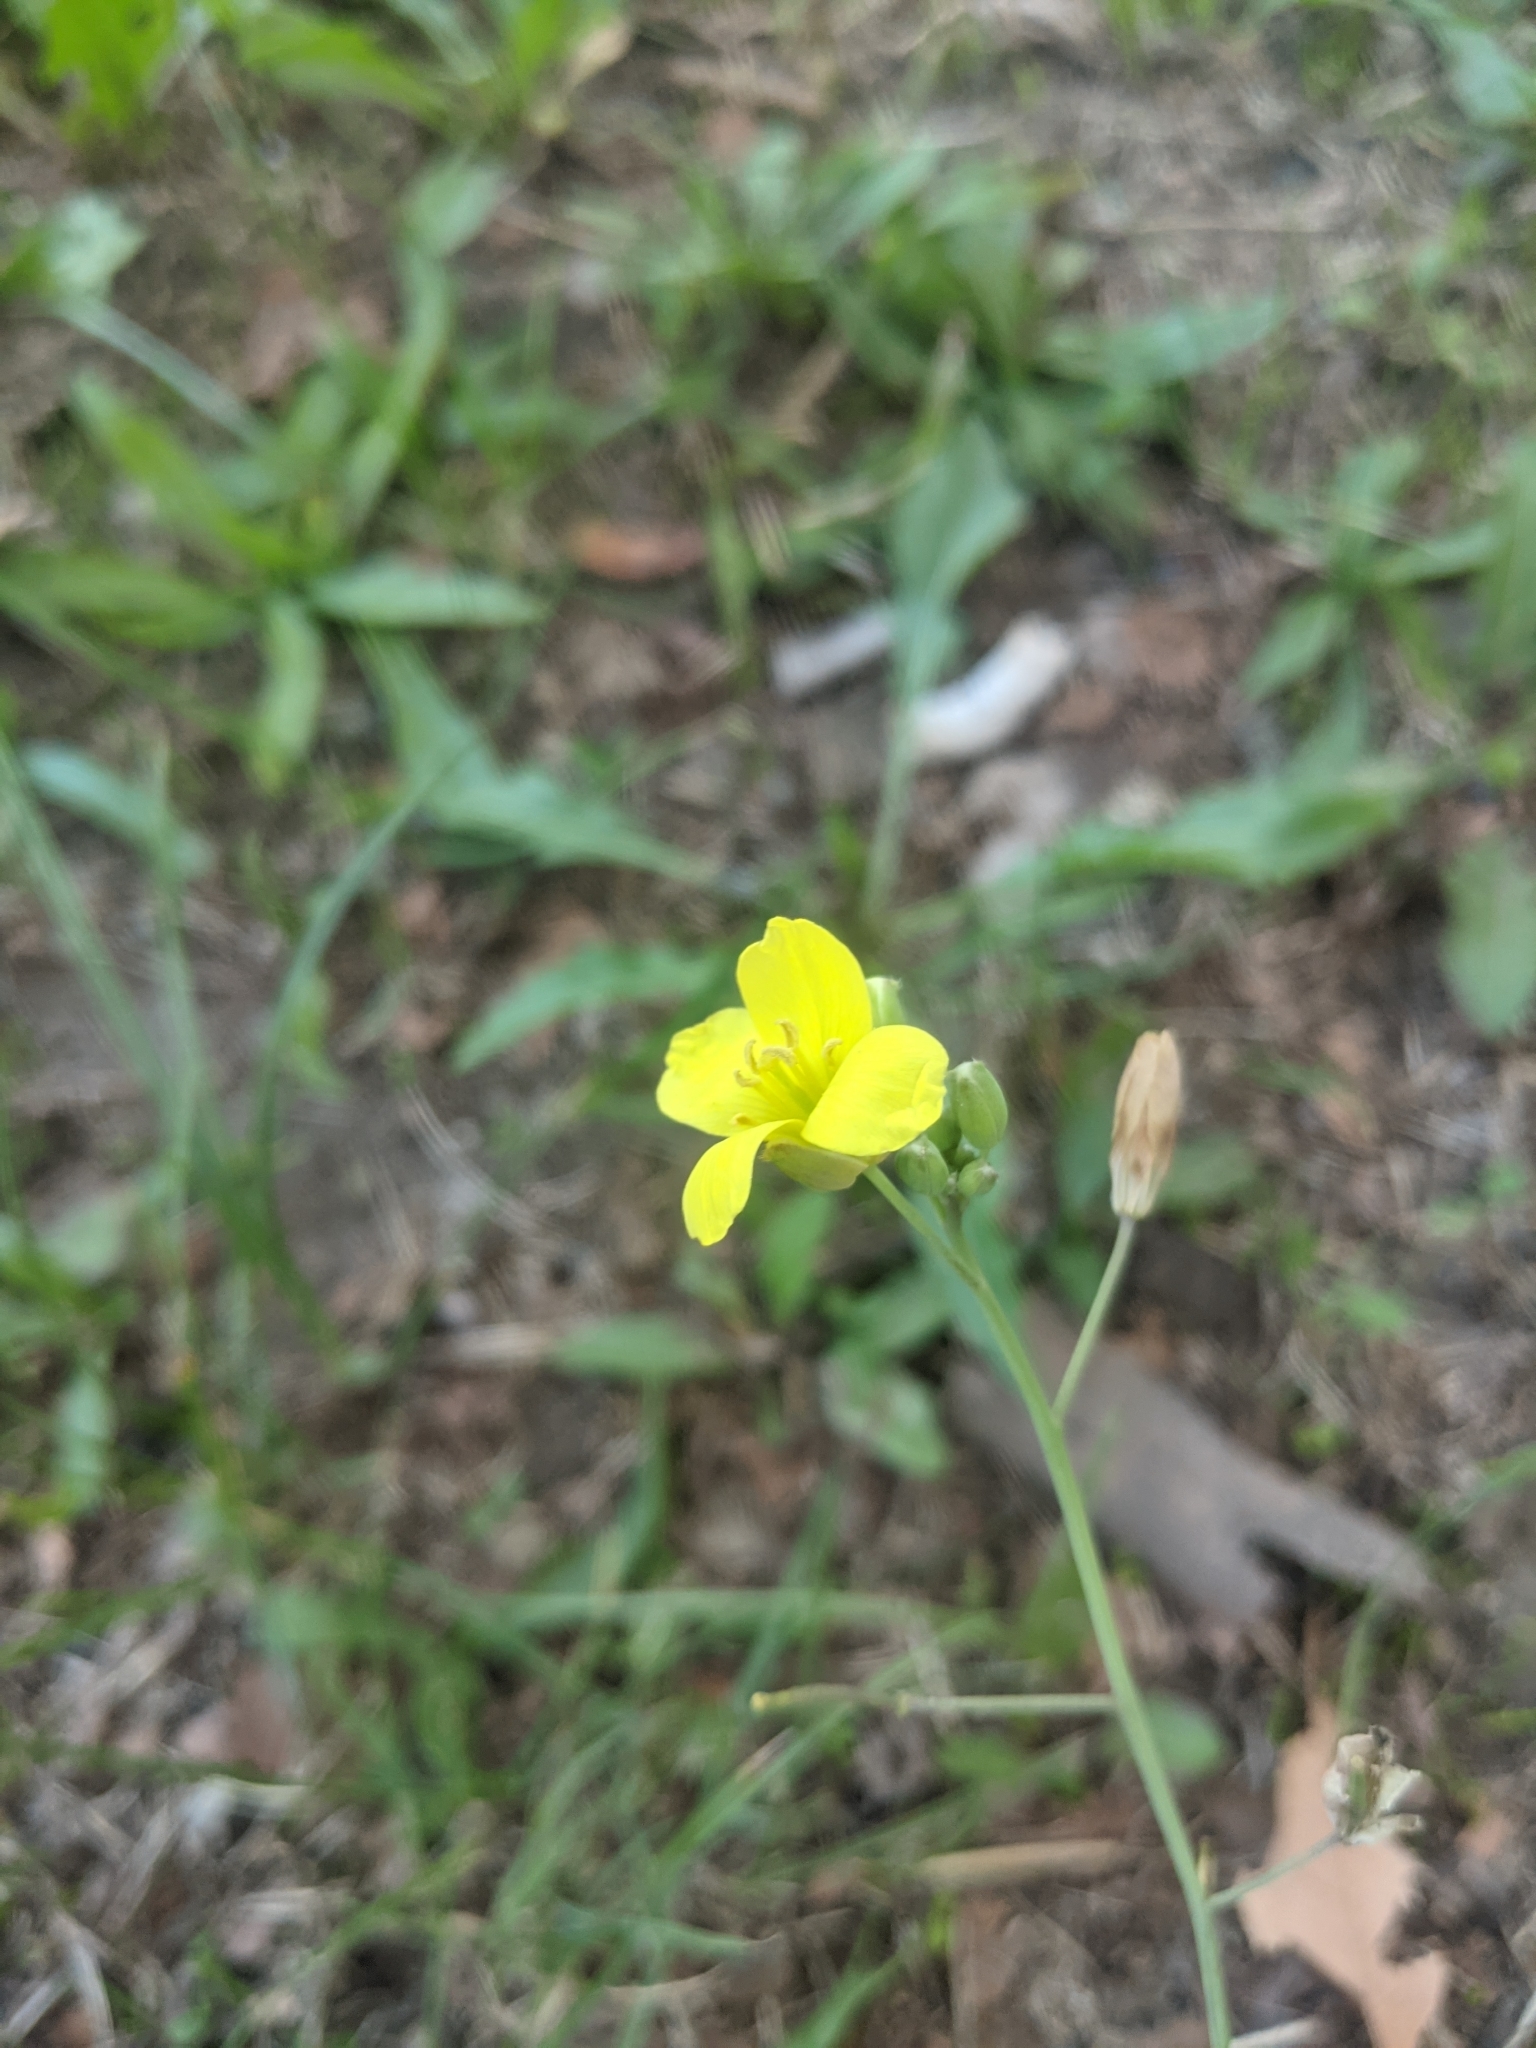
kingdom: Plantae
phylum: Tracheophyta
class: Magnoliopsida
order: Brassicales
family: Brassicaceae
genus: Diplotaxis
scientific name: Diplotaxis tenuifolia
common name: Perennial wall-rocket
